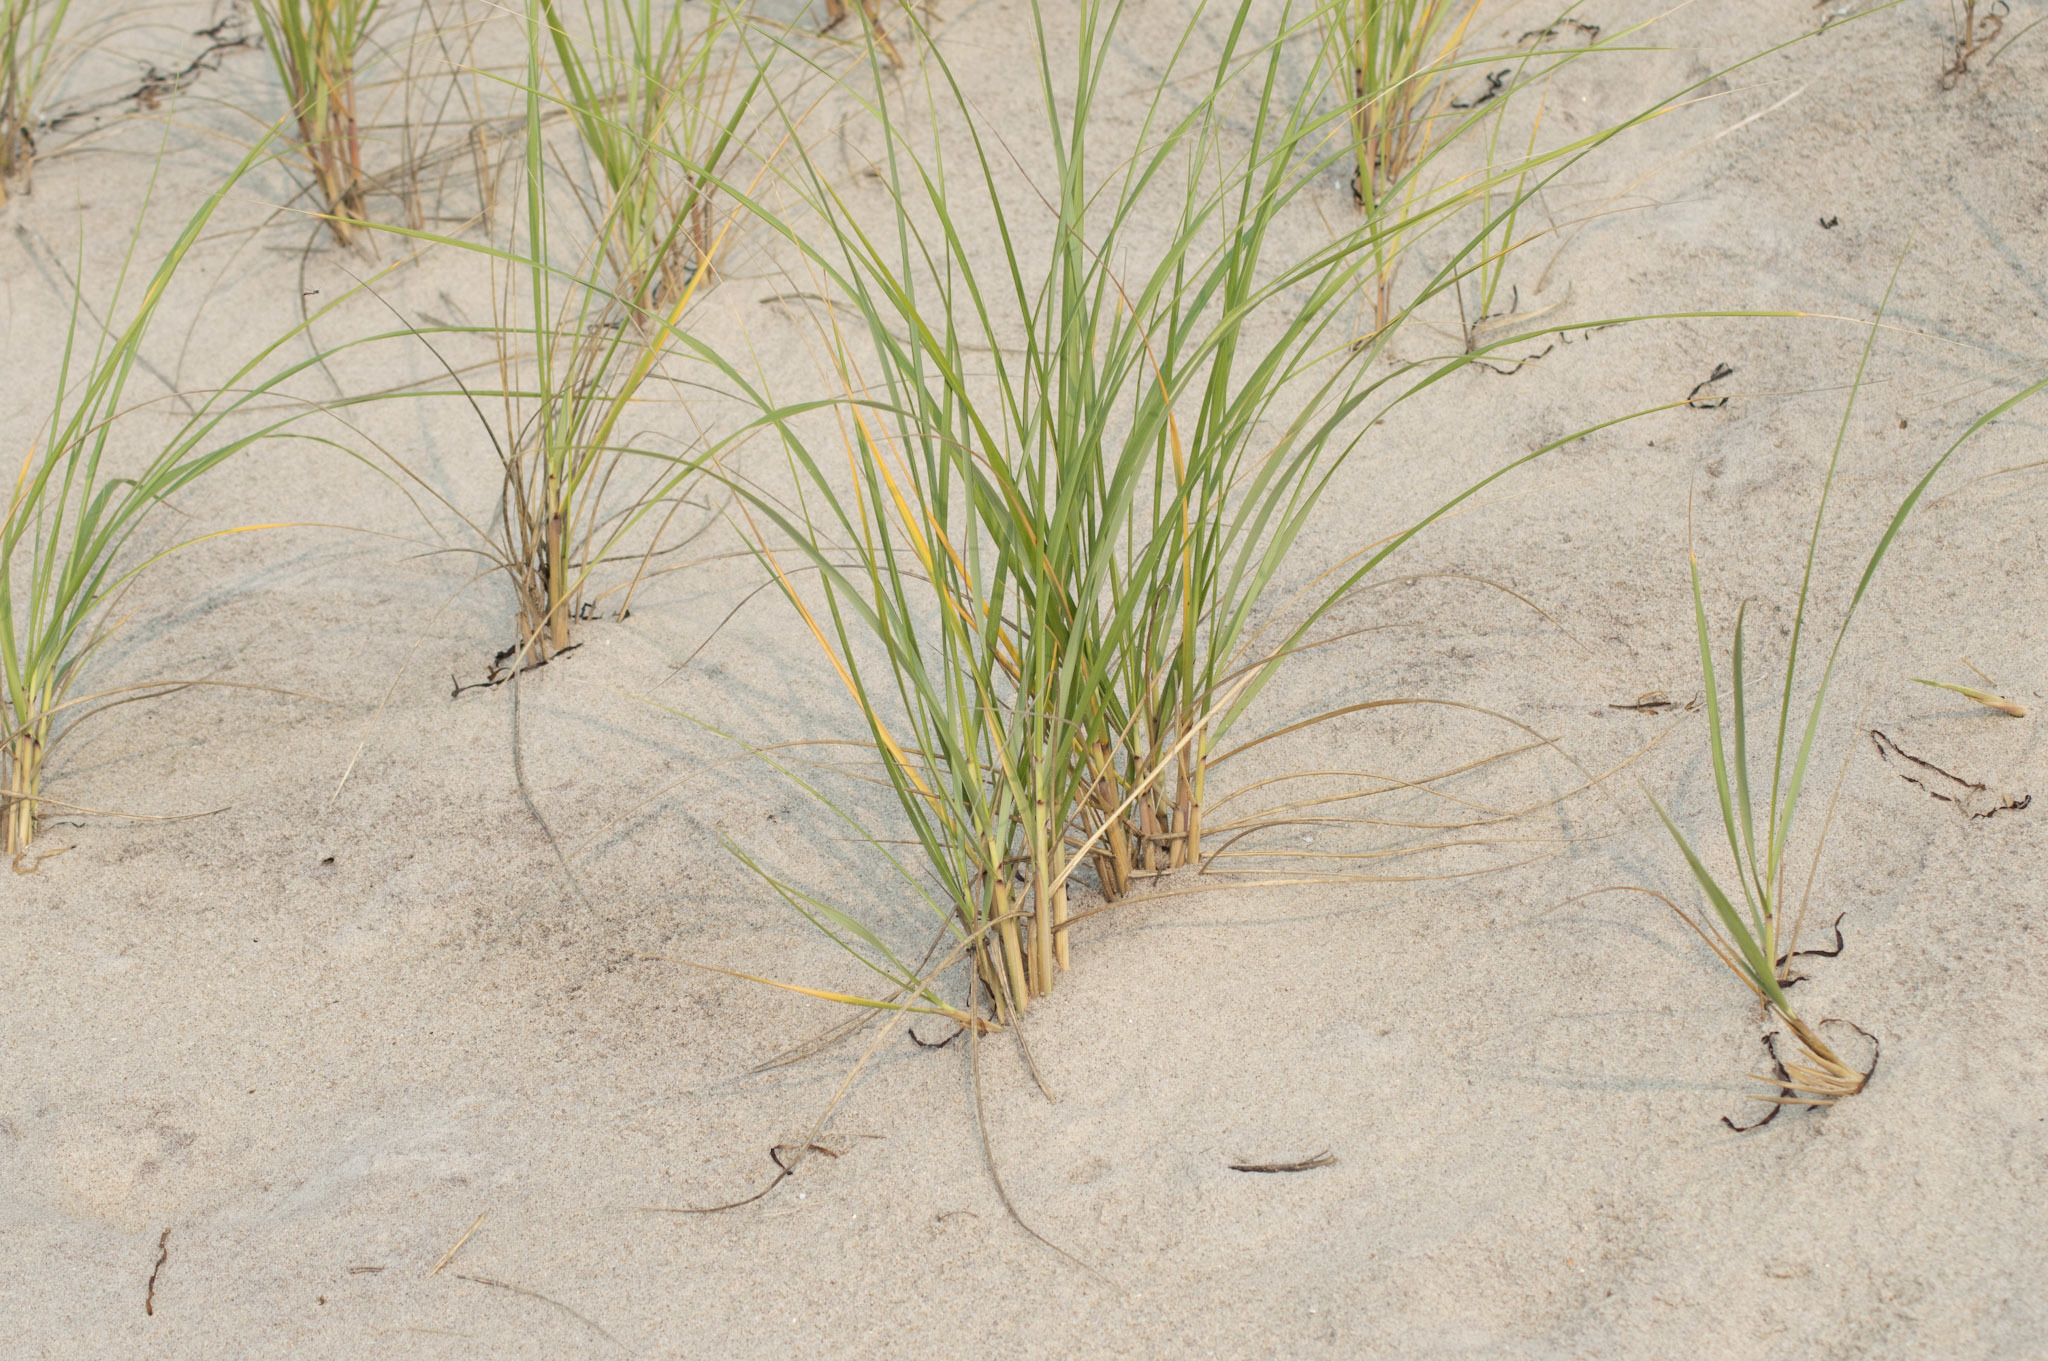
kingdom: Plantae
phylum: Tracheophyta
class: Liliopsida
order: Poales
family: Poaceae
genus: Calamagrostis
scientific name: Calamagrostis breviligulata
